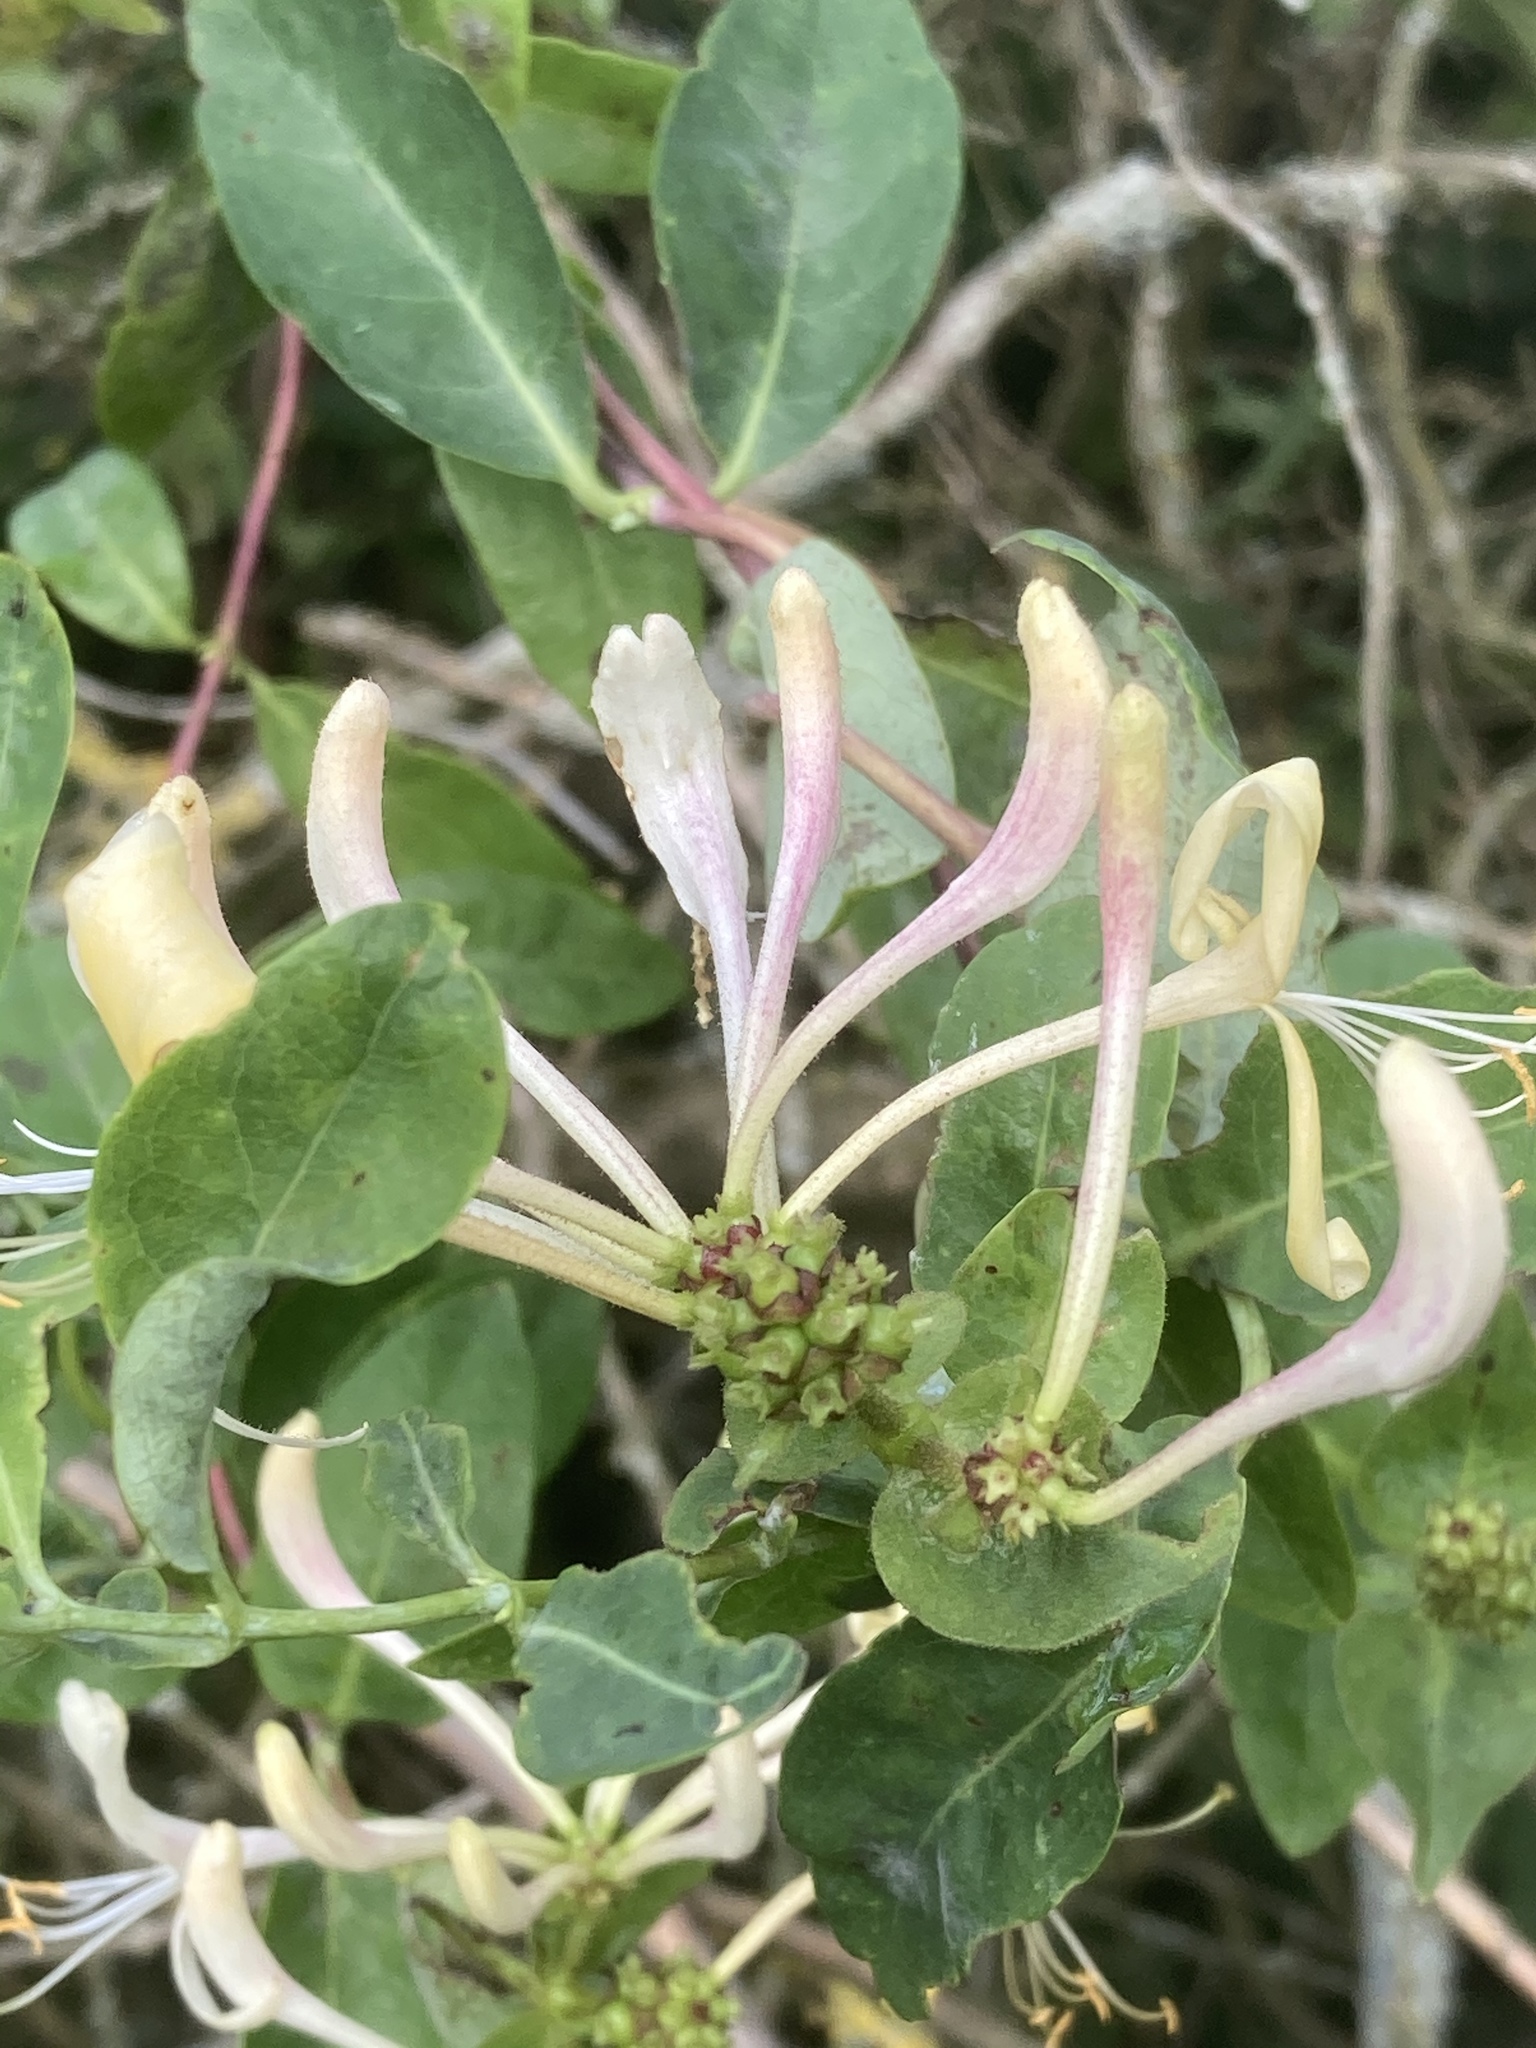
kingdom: Plantae
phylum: Tracheophyta
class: Magnoliopsida
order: Dipsacales
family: Caprifoliaceae
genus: Lonicera
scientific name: Lonicera periclymenum
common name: European honeysuckle
